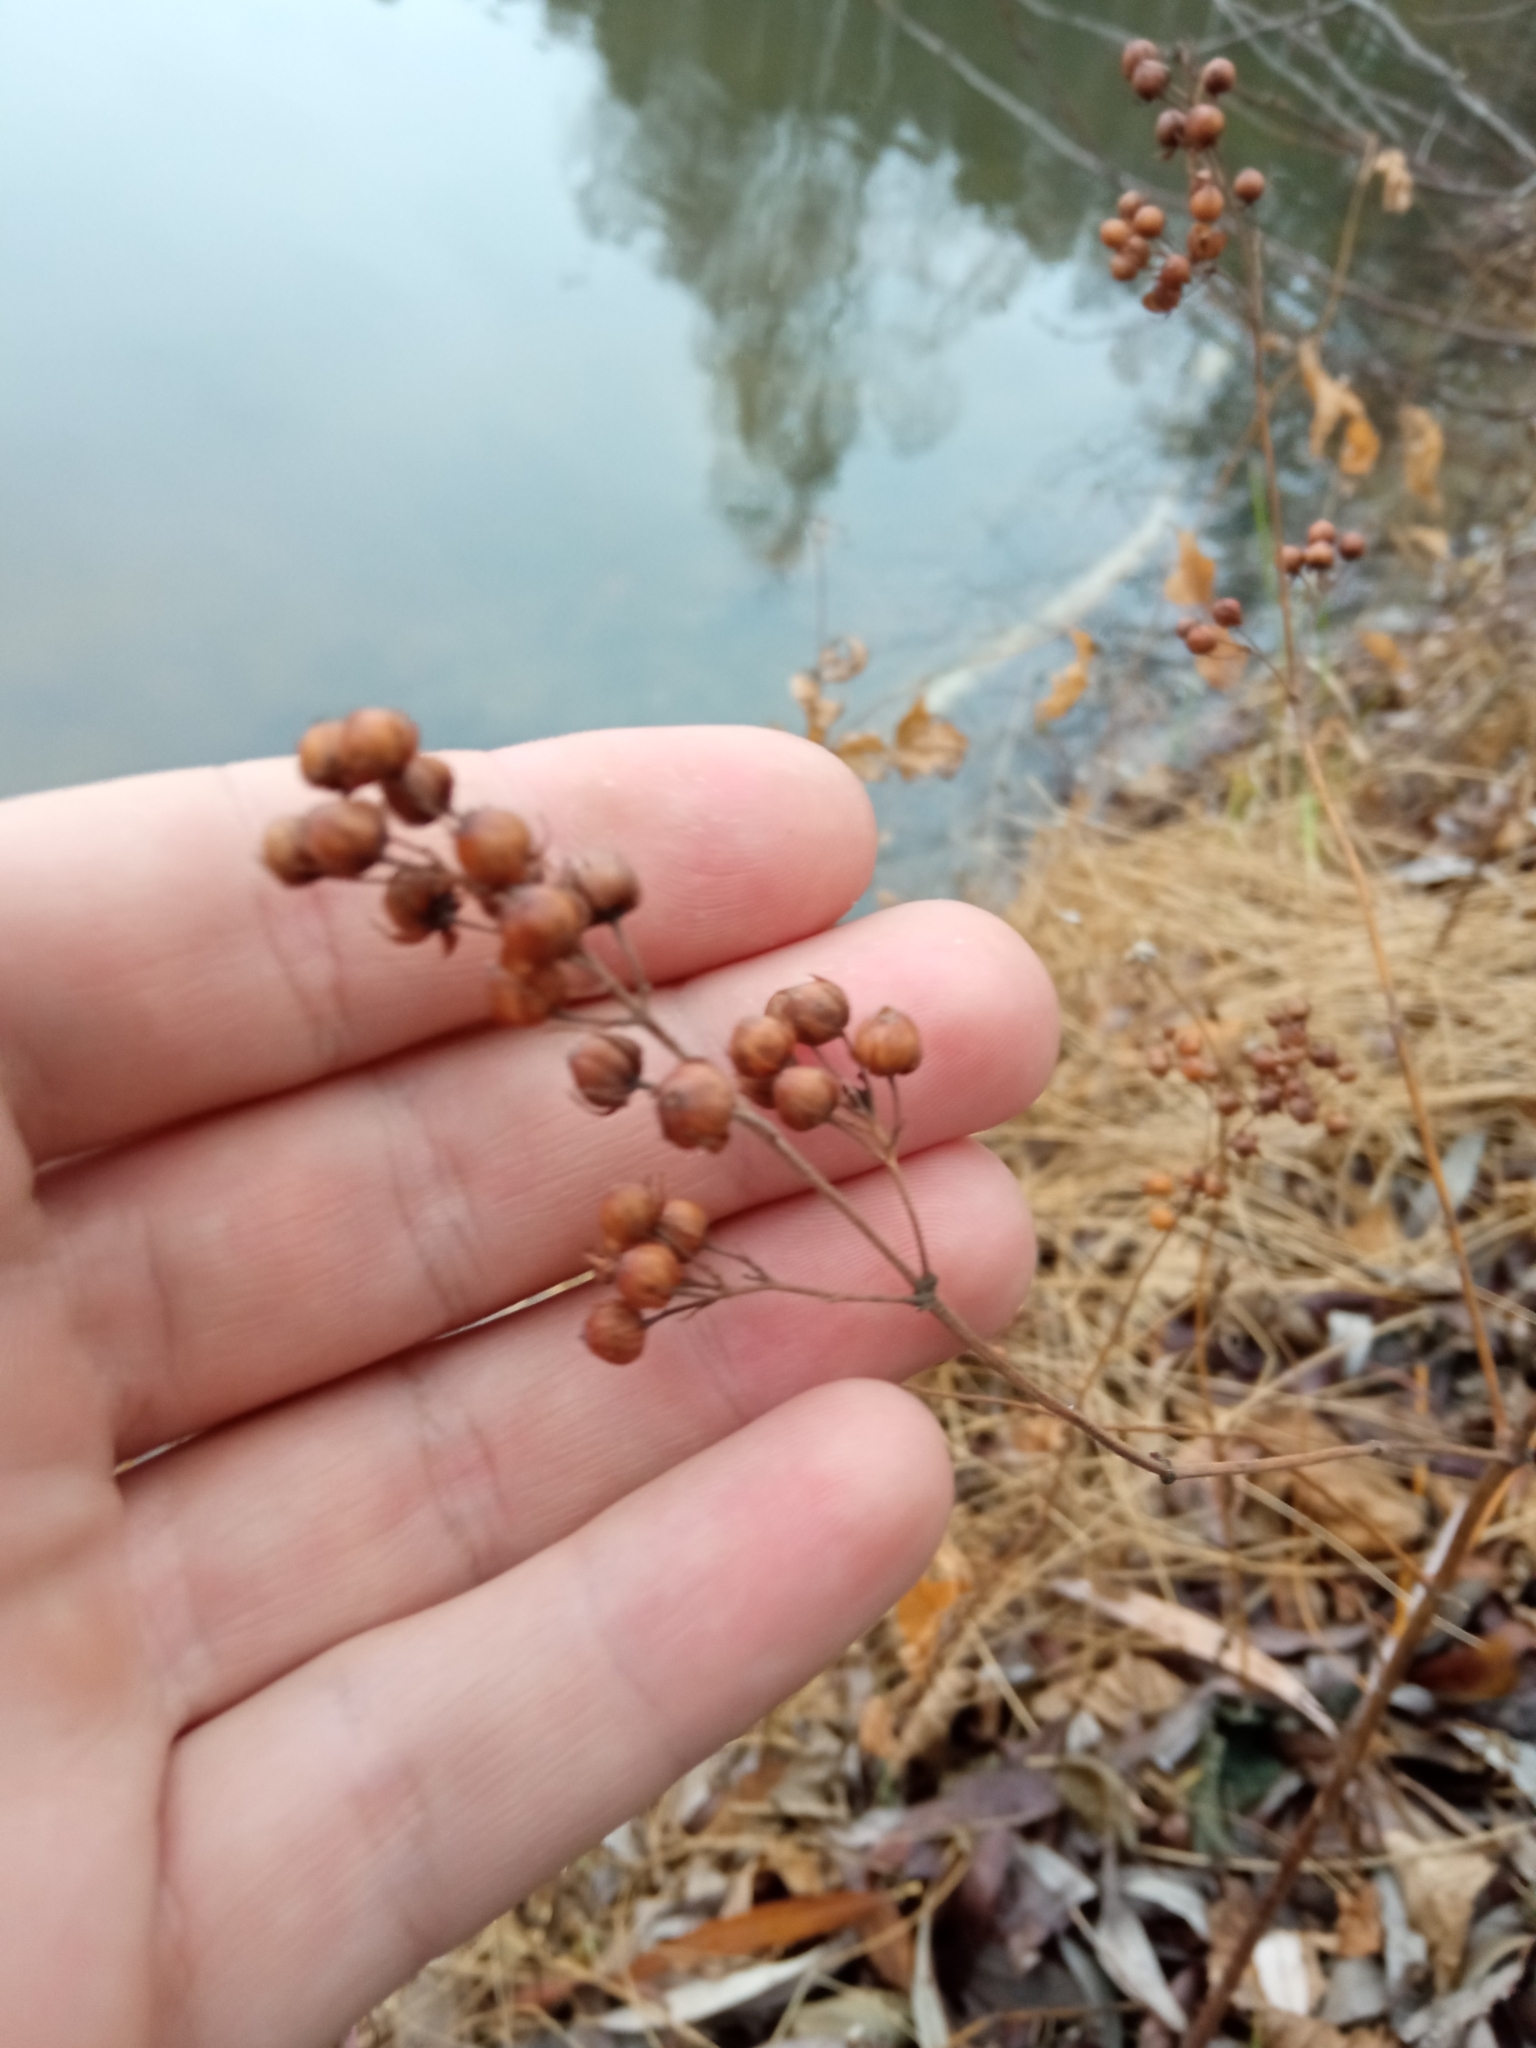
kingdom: Plantae
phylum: Tracheophyta
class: Magnoliopsida
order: Ericales
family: Primulaceae
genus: Lysimachia
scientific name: Lysimachia vulgaris
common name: Yellow loosestrife
